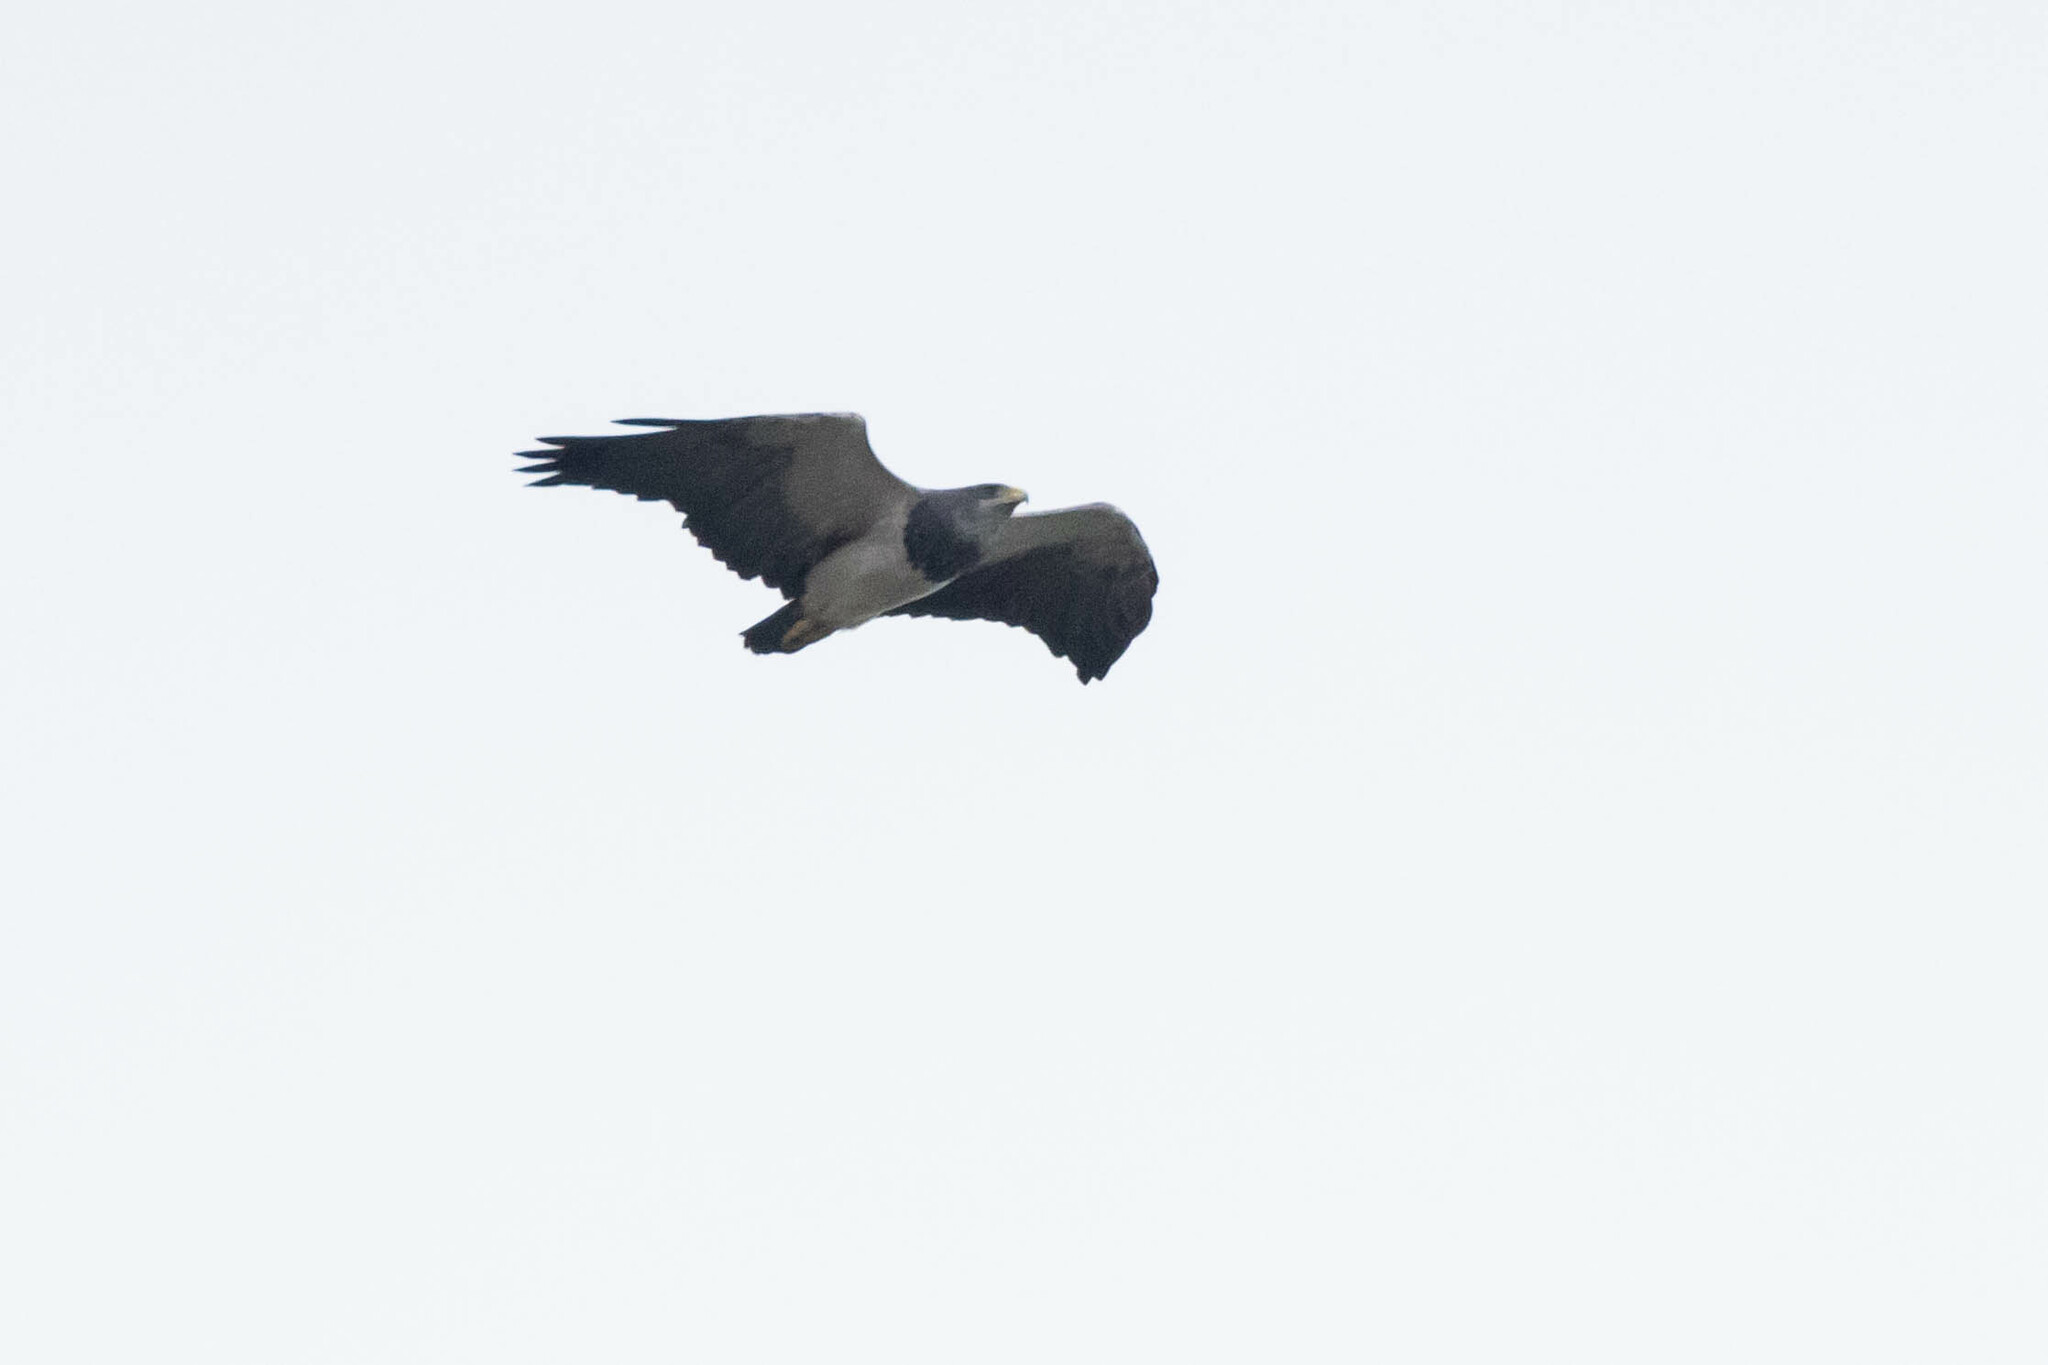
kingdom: Animalia
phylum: Chordata
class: Aves
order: Accipitriformes
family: Accipitridae
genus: Geranoaetus
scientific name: Geranoaetus melanoleucus
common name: Black-chested buzzard-eagle
